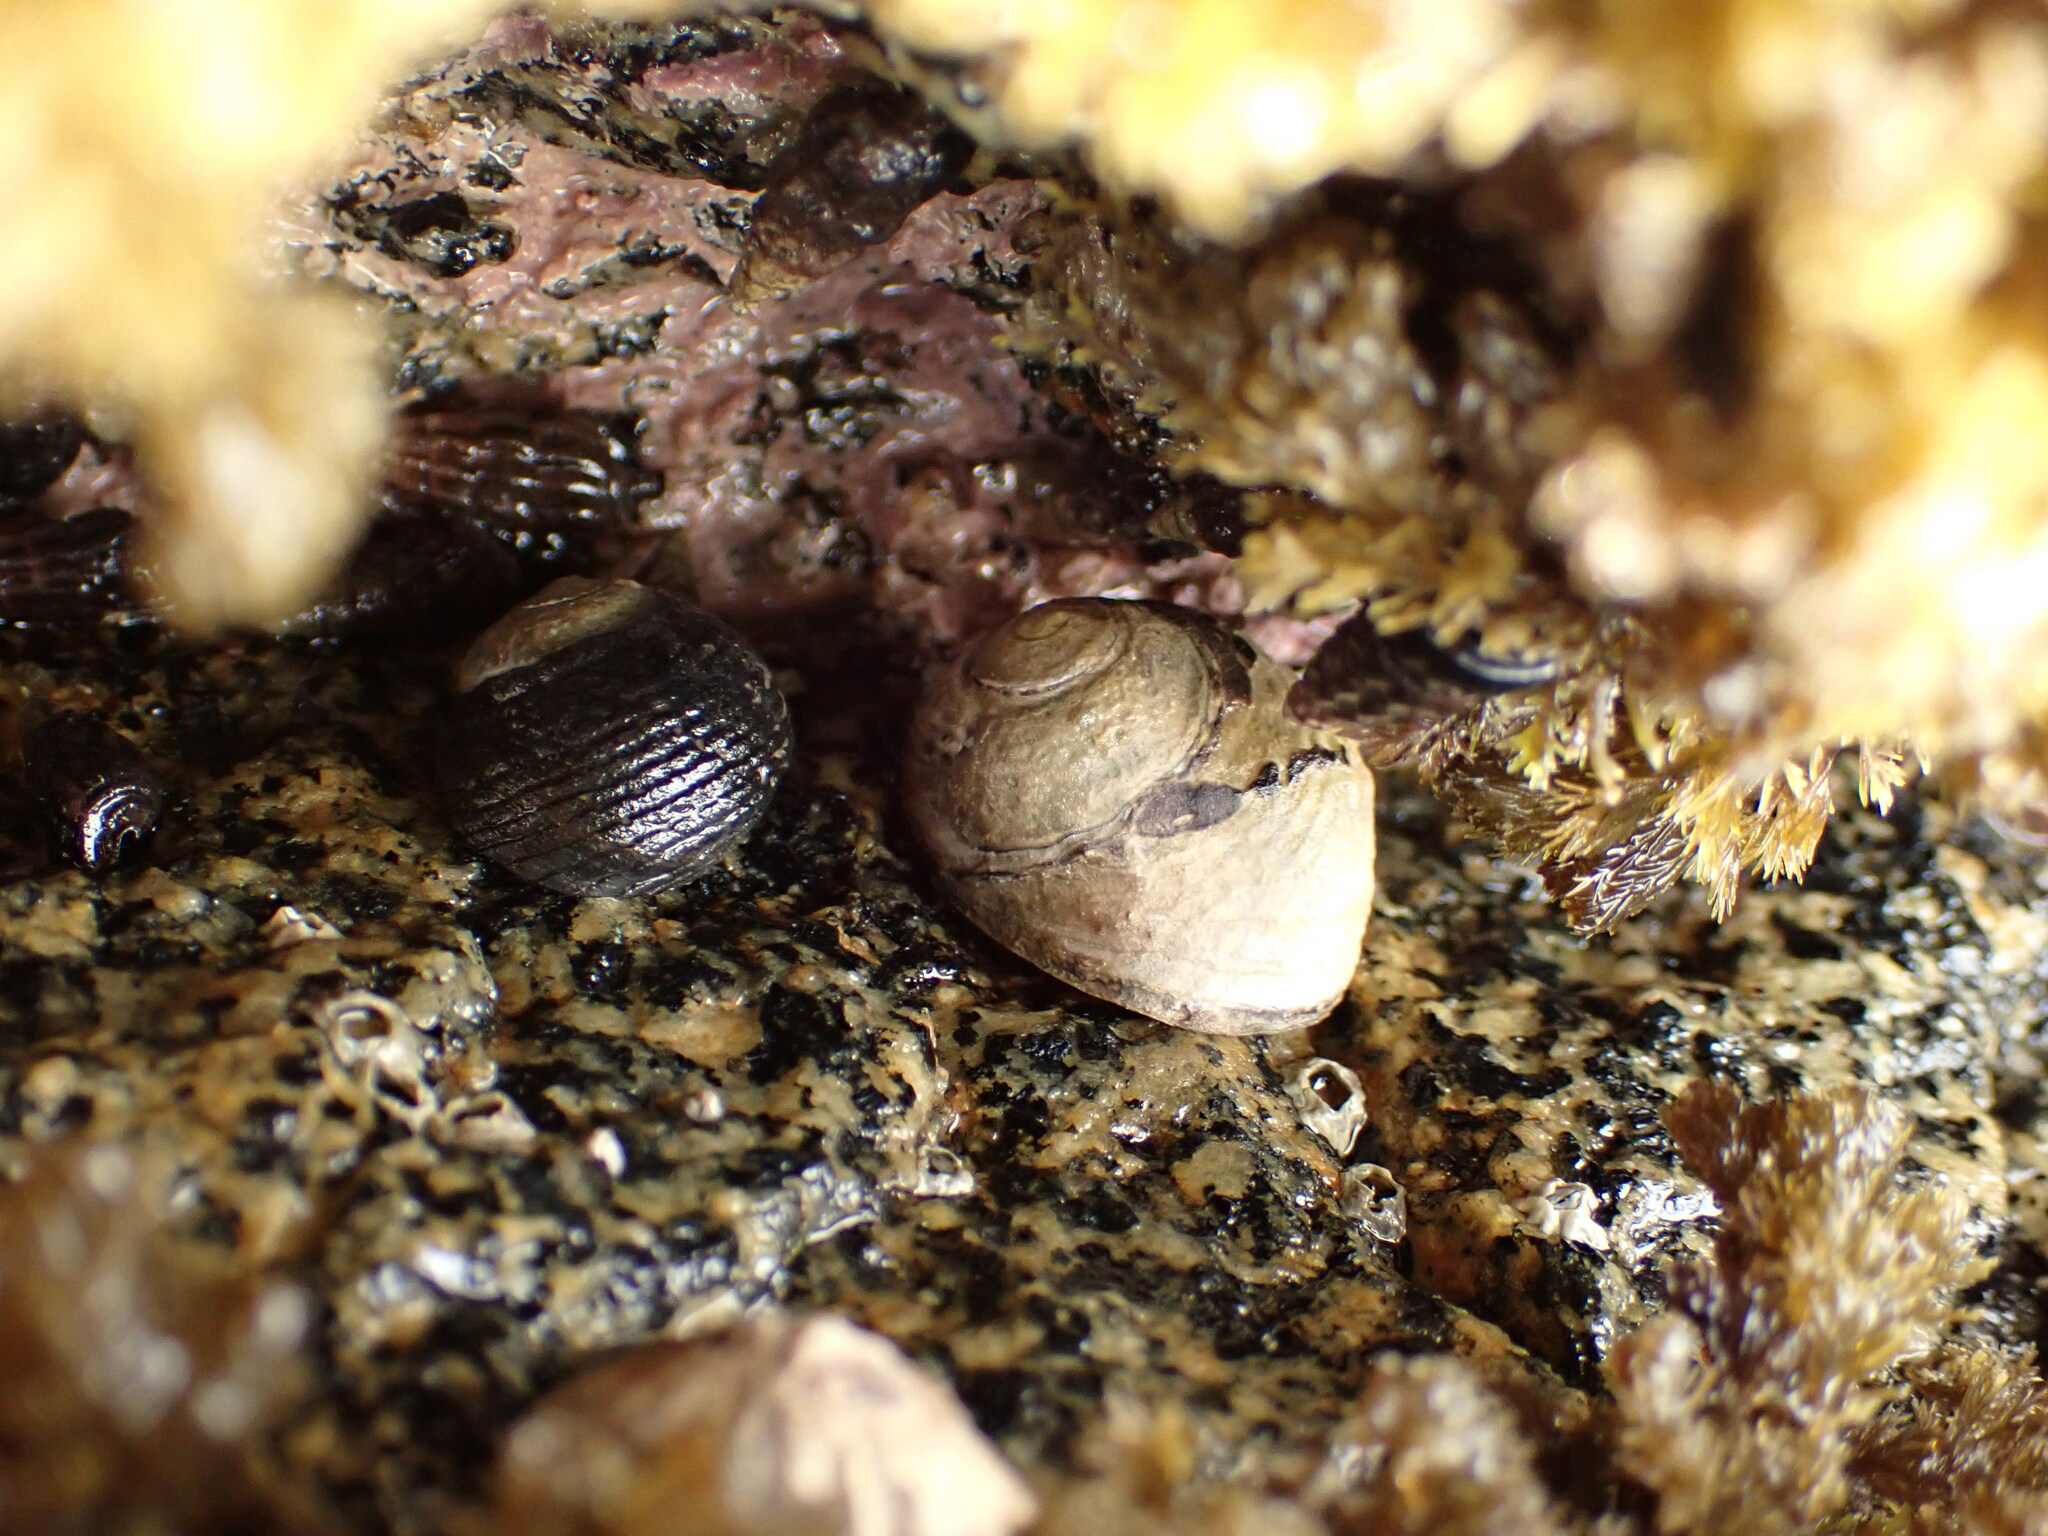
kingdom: Animalia
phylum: Mollusca
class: Gastropoda
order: Trochida
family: Trochidae
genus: Diloma
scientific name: Diloma zelandicum
